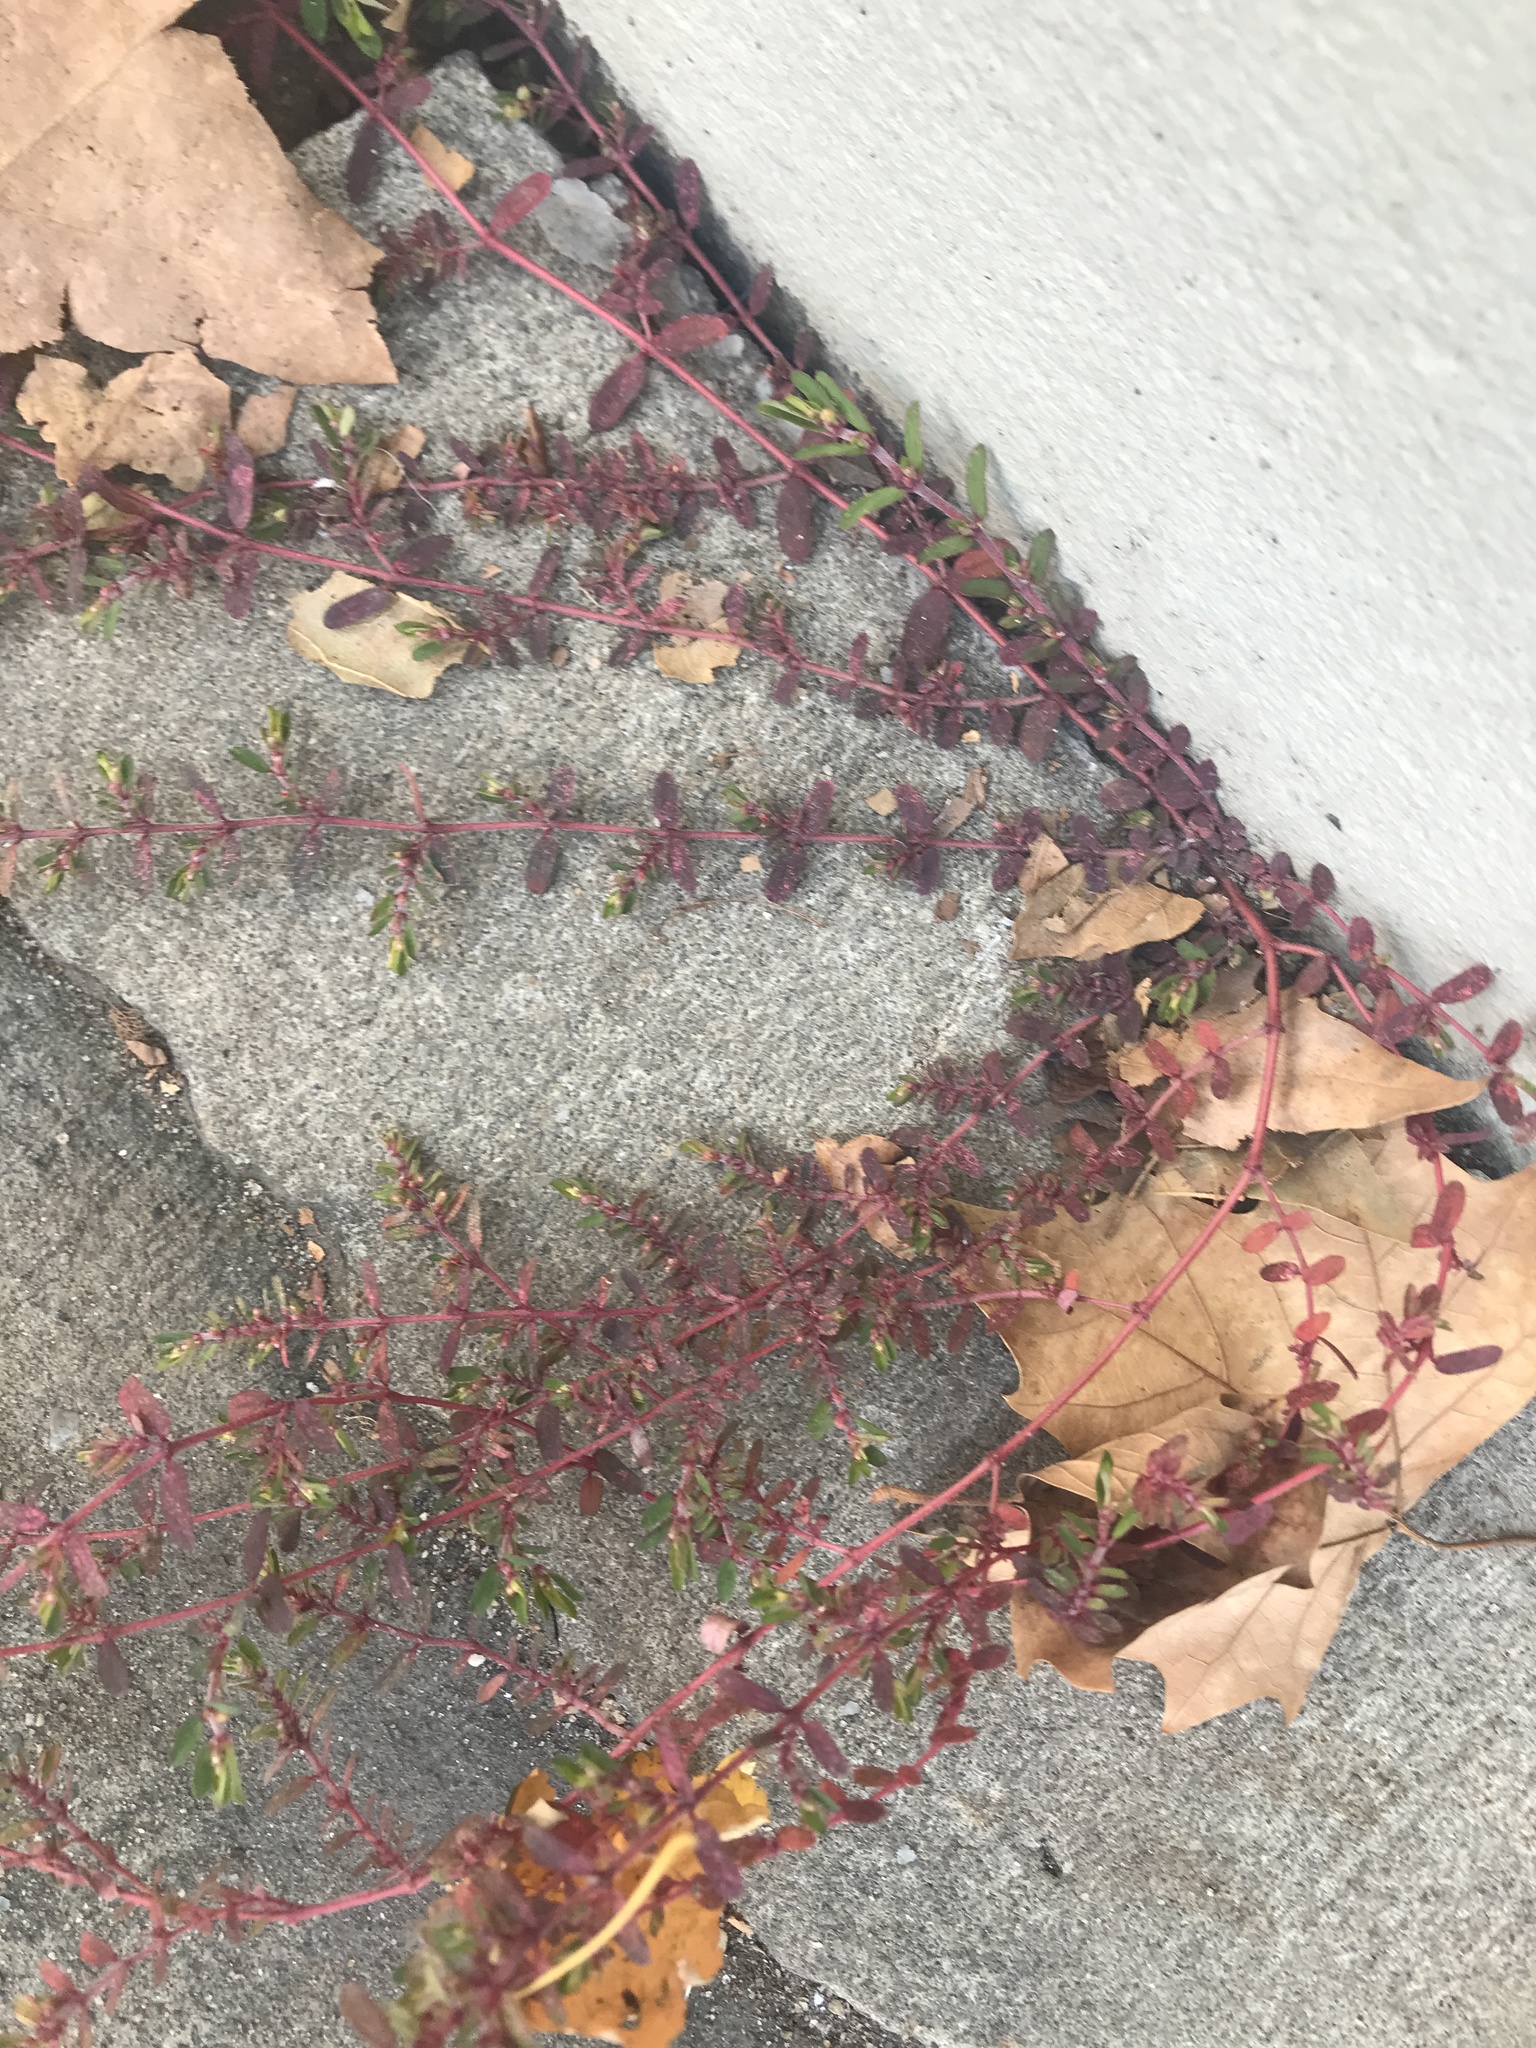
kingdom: Plantae
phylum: Tracheophyta
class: Magnoliopsida
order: Malpighiales
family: Euphorbiaceae
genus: Euphorbia
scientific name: Euphorbia maculata
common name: Spotted spurge
